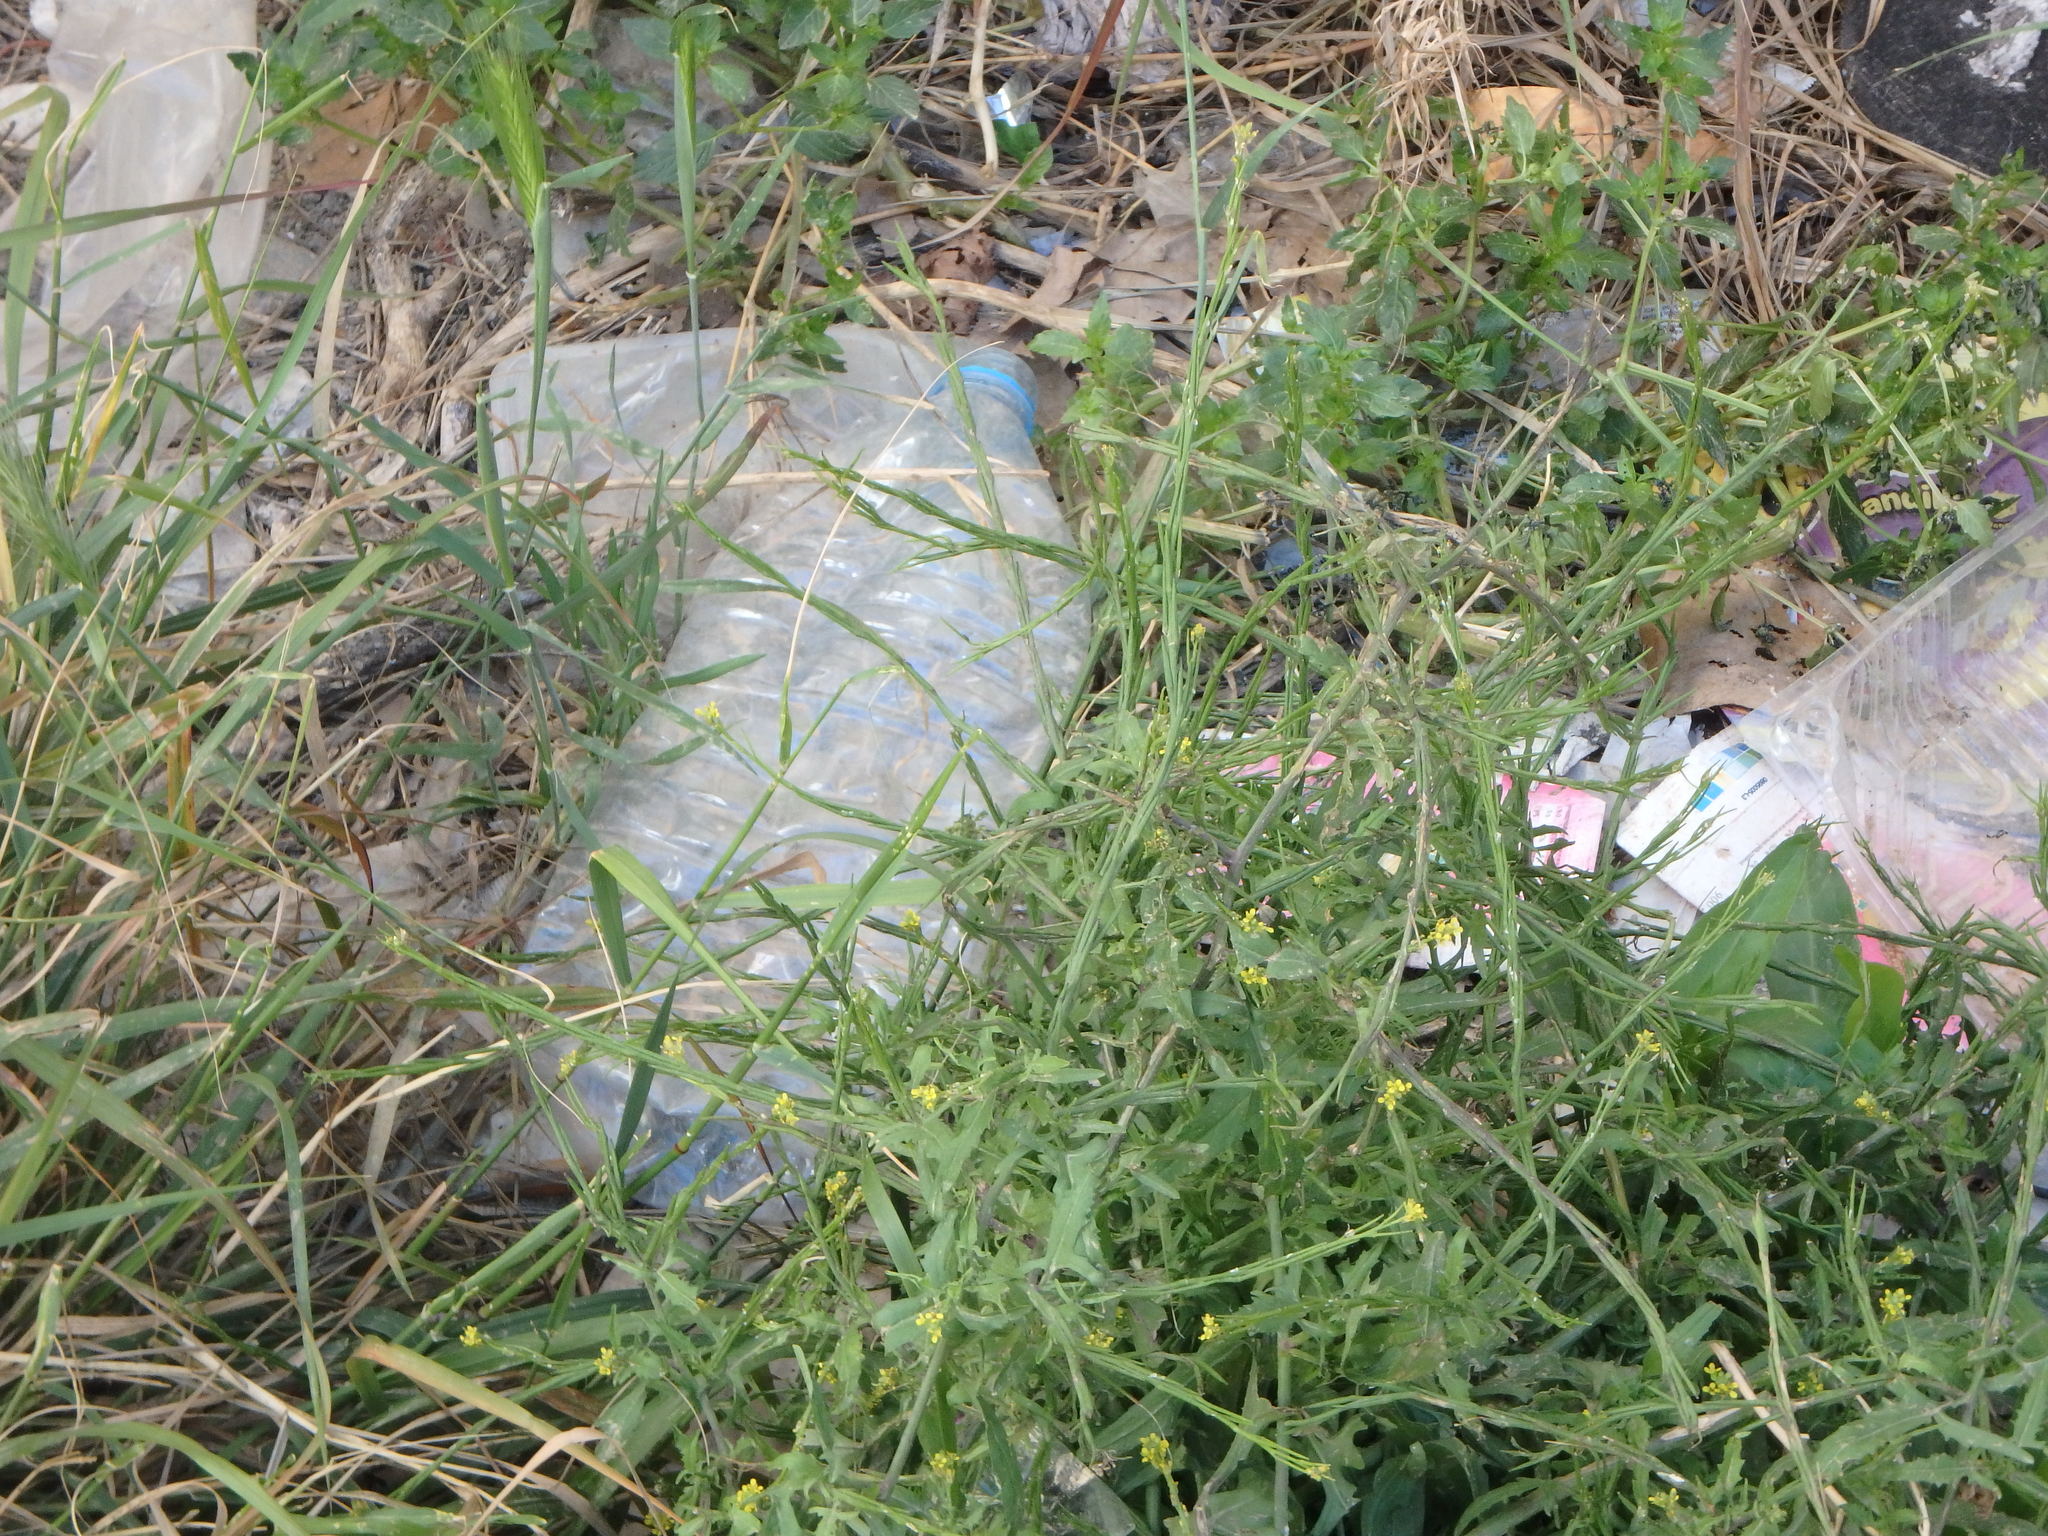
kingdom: Plantae
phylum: Tracheophyta
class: Magnoliopsida
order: Brassicales
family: Brassicaceae
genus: Sisymbrium
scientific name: Sisymbrium officinale
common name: Hedge mustard
